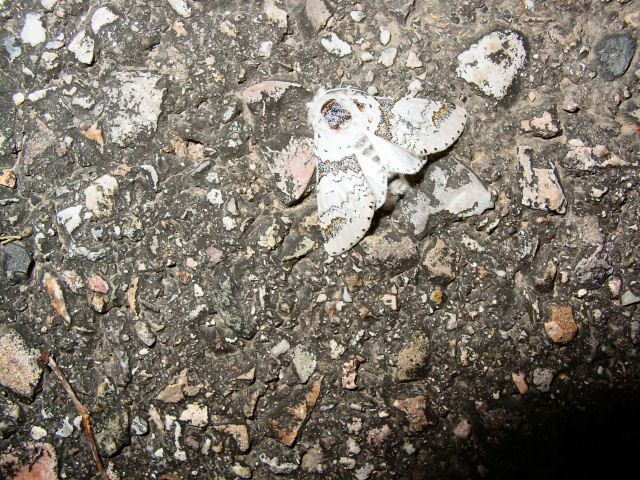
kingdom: Animalia
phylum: Arthropoda
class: Insecta
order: Lepidoptera
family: Notodontidae
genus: Furcula
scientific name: Furcula scolopendrina
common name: Zigzag furcula moth
